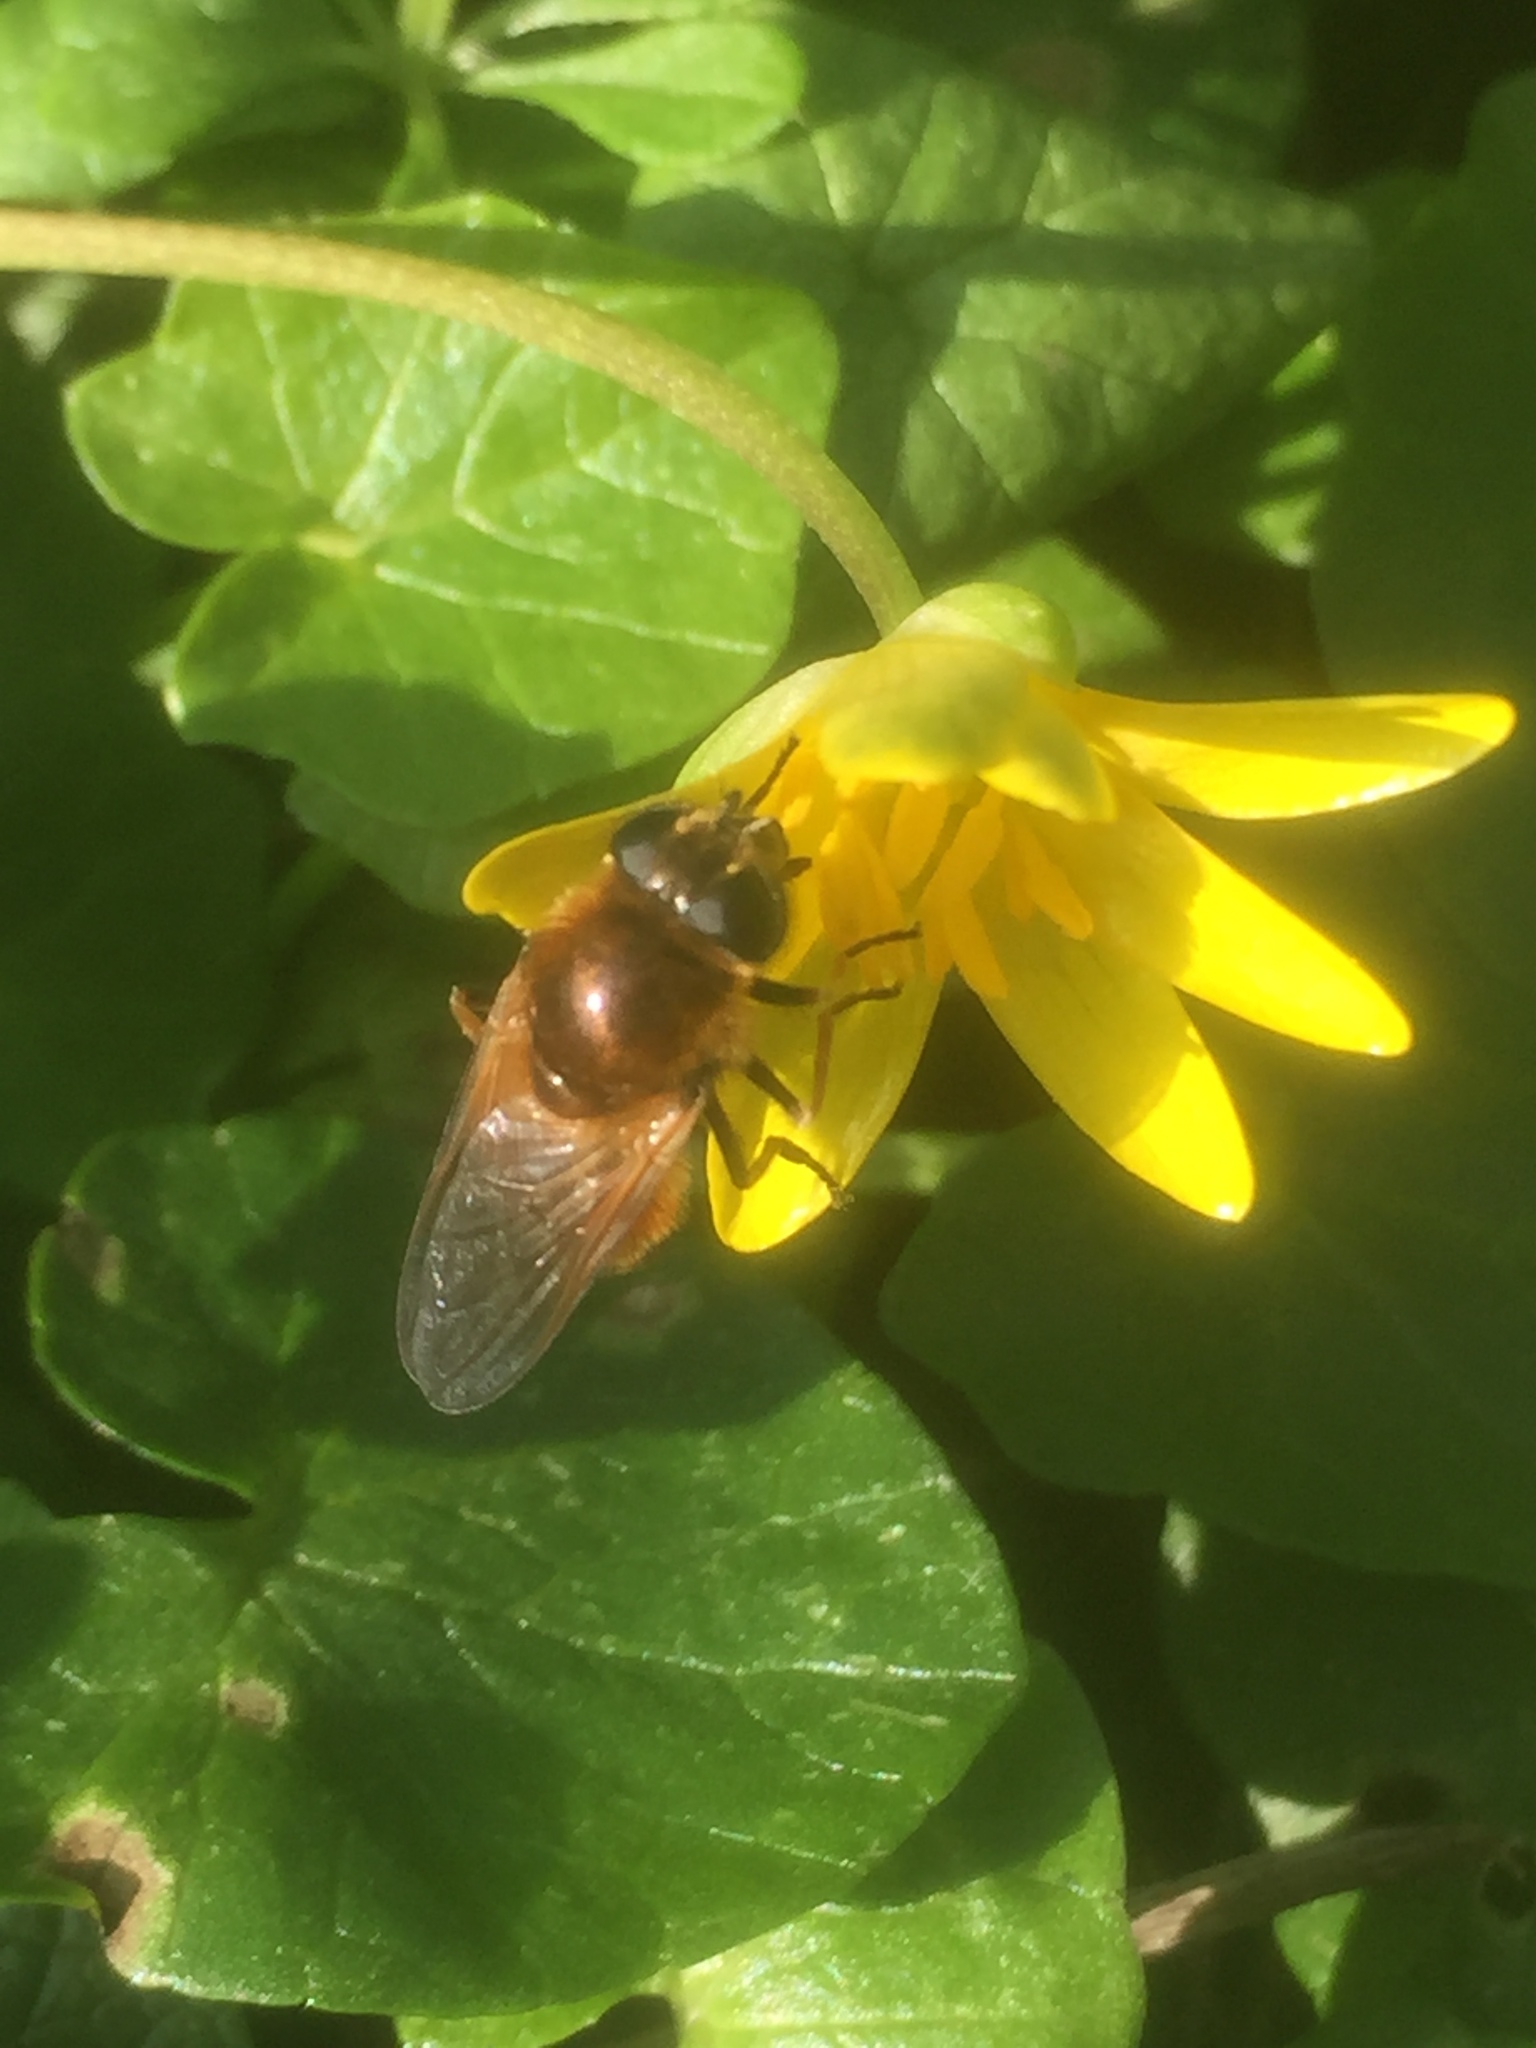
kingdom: Plantae
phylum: Tracheophyta
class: Magnoliopsida
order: Ranunculales
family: Ranunculaceae
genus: Ficaria
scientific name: Ficaria verna
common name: Lesser celandine
